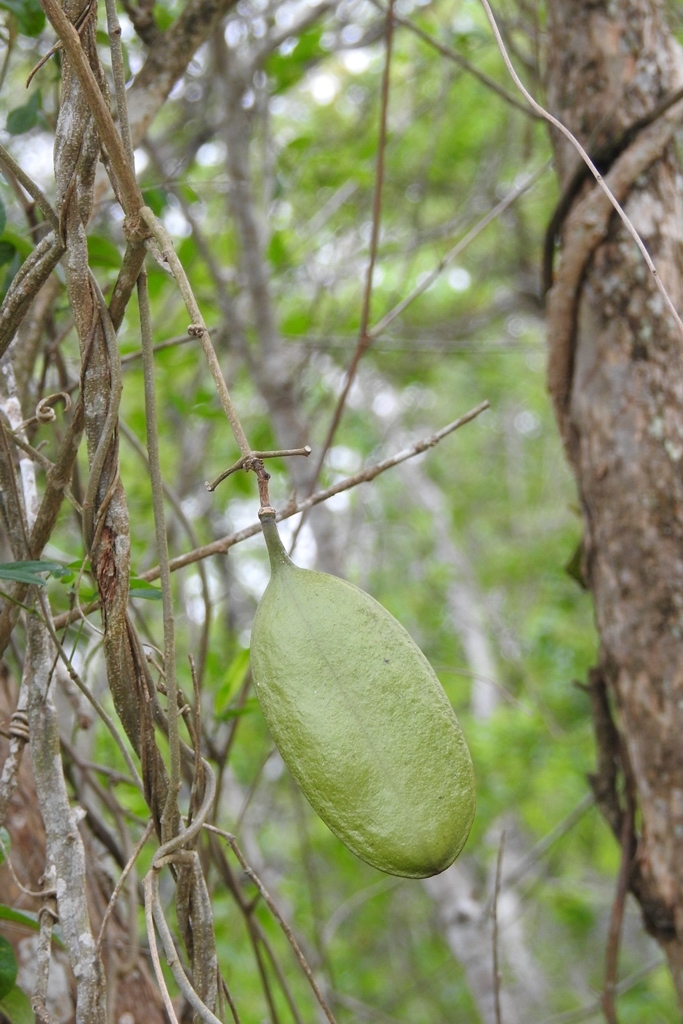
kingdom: Plantae
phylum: Tracheophyta
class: Magnoliopsida
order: Lamiales
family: Bignoniaceae
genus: Anemopaegma
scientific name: Anemopaegma puberulum
